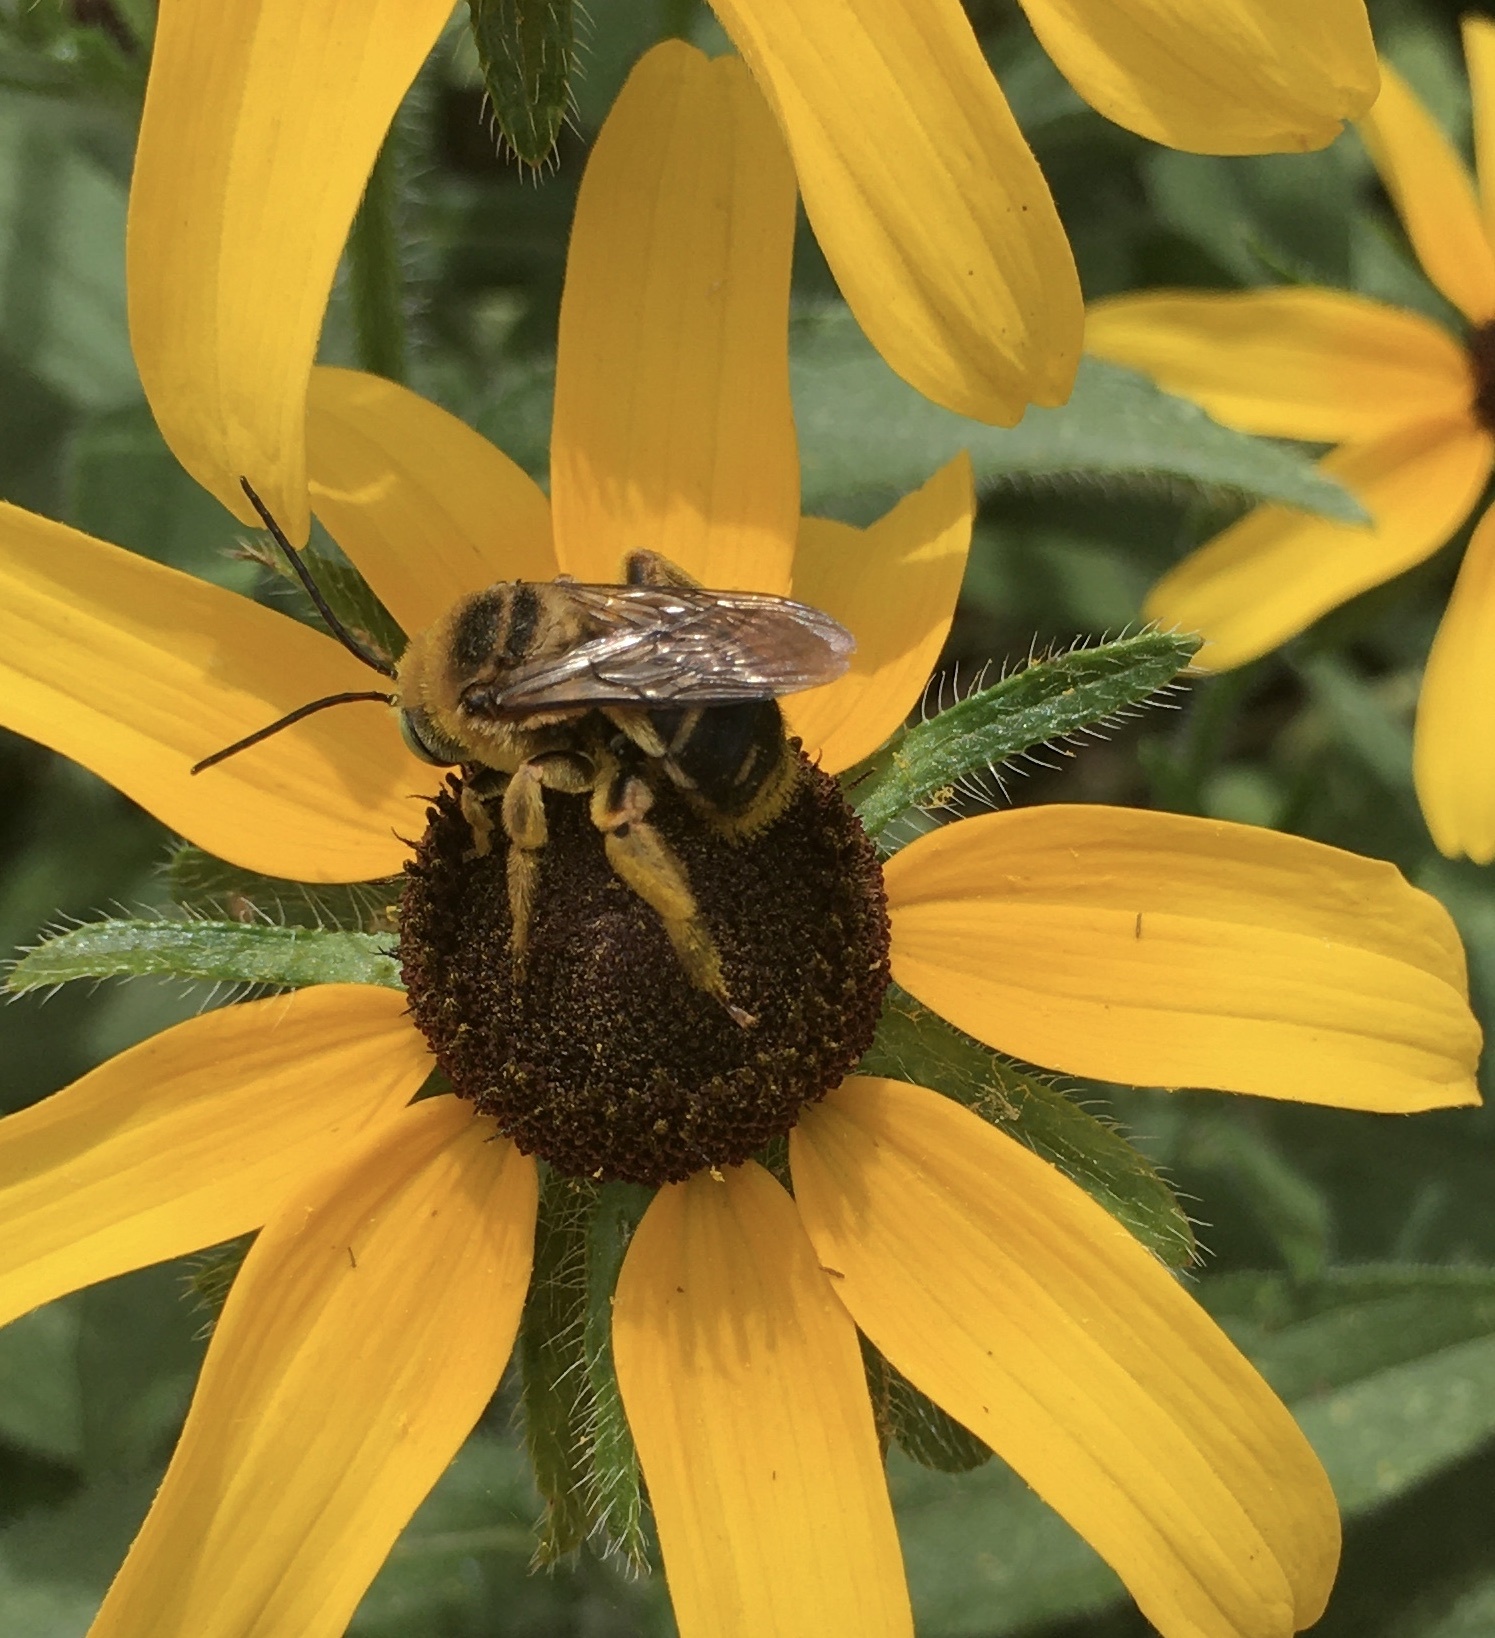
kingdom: Animalia
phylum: Arthropoda
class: Insecta
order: Hymenoptera
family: Apidae
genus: Svastra
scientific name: Svastra obliqua
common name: Oblique longhorn
